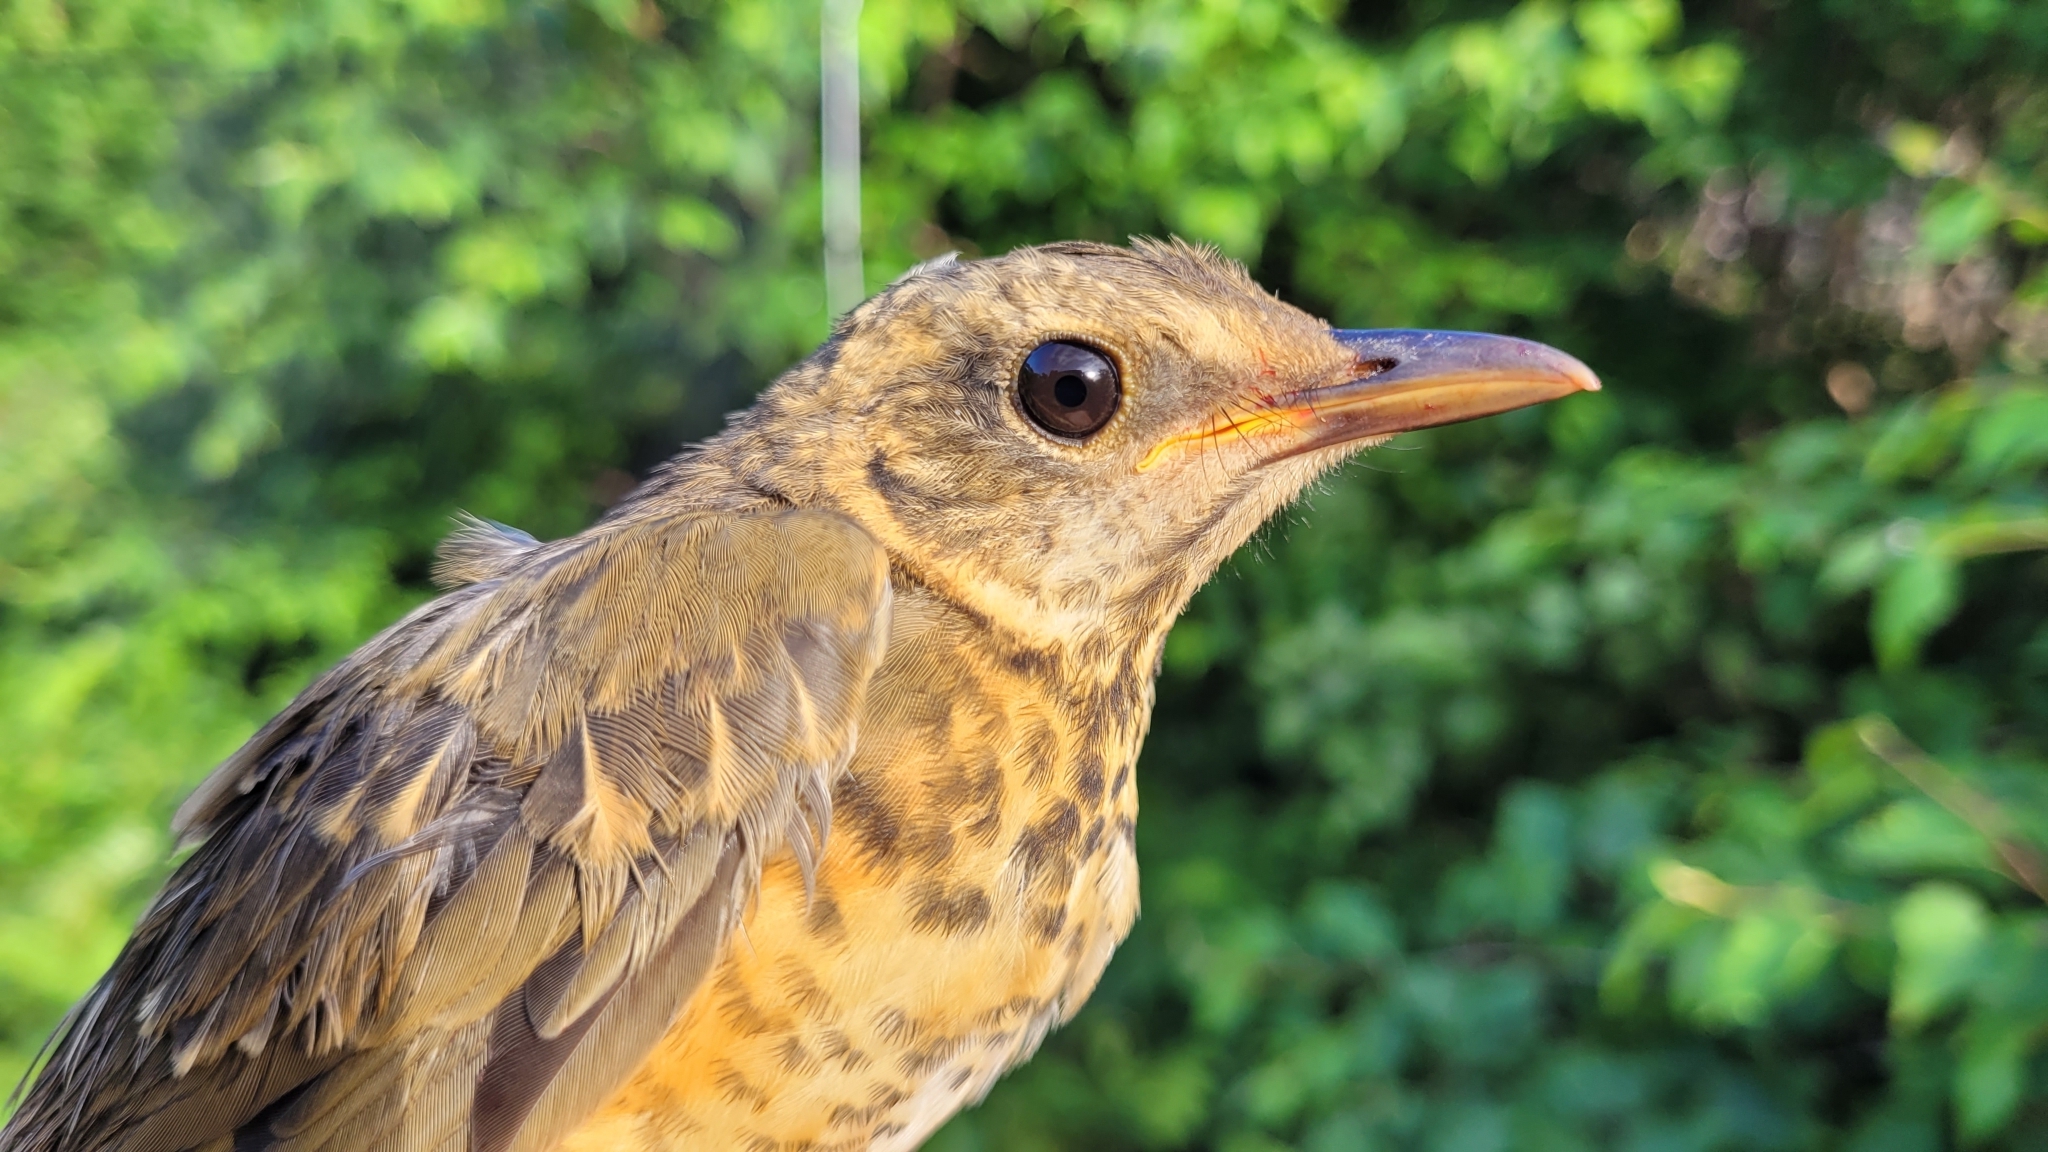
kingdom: Animalia
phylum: Chordata
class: Aves
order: Passeriformes
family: Turdidae
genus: Turdus
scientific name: Turdus chrysolaus
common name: Brown-headed thrush
